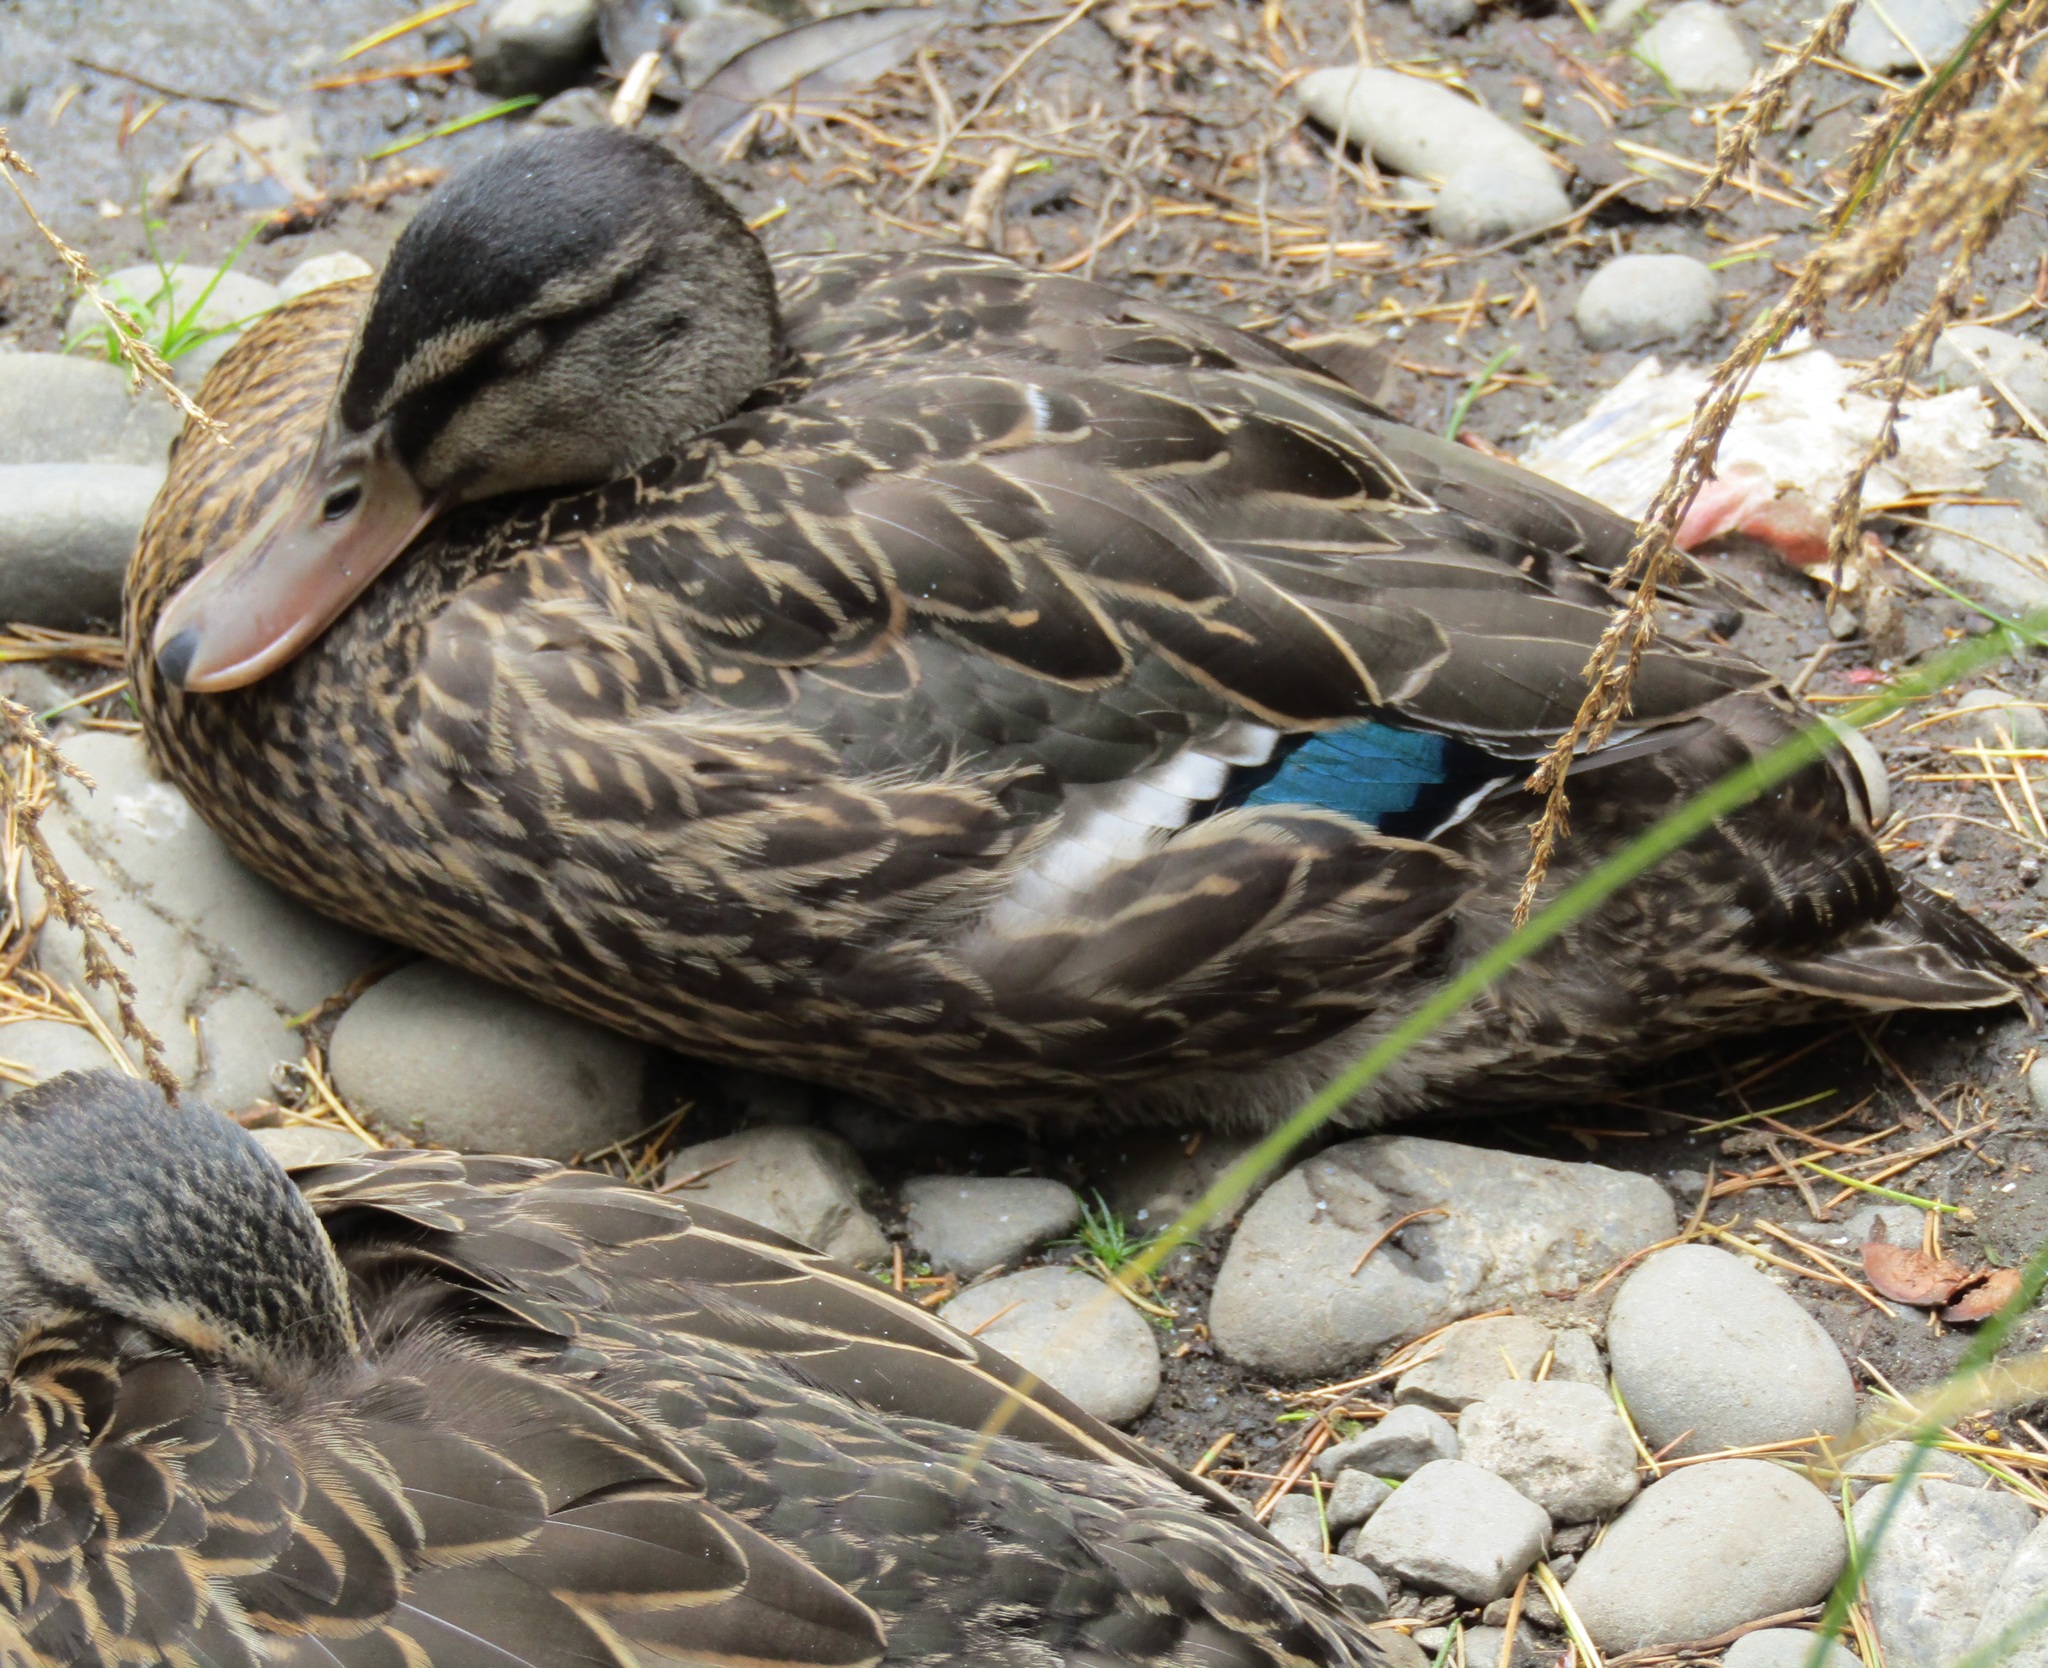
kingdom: Animalia
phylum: Chordata
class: Aves
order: Anseriformes
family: Anatidae
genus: Anas
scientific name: Anas
